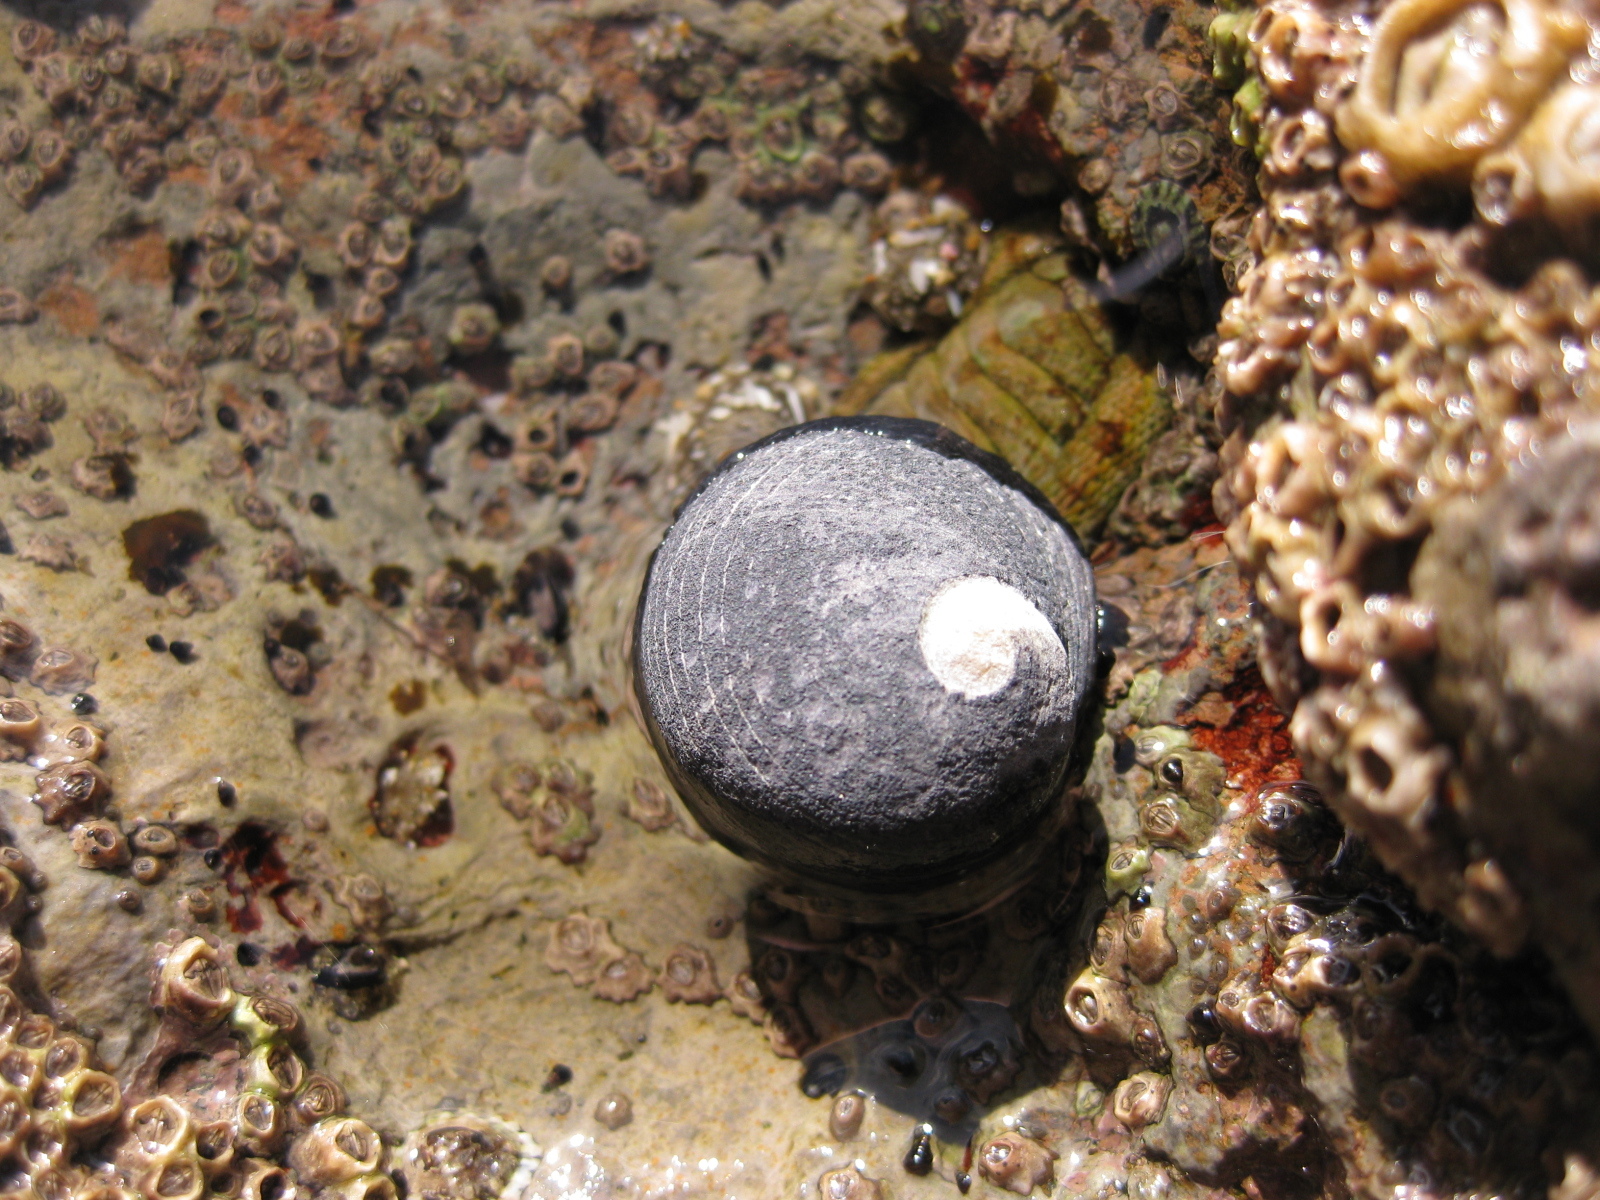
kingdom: Animalia
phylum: Mollusca
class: Gastropoda
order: Cycloneritida
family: Neritidae
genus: Nerita
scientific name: Nerita melanotragus
